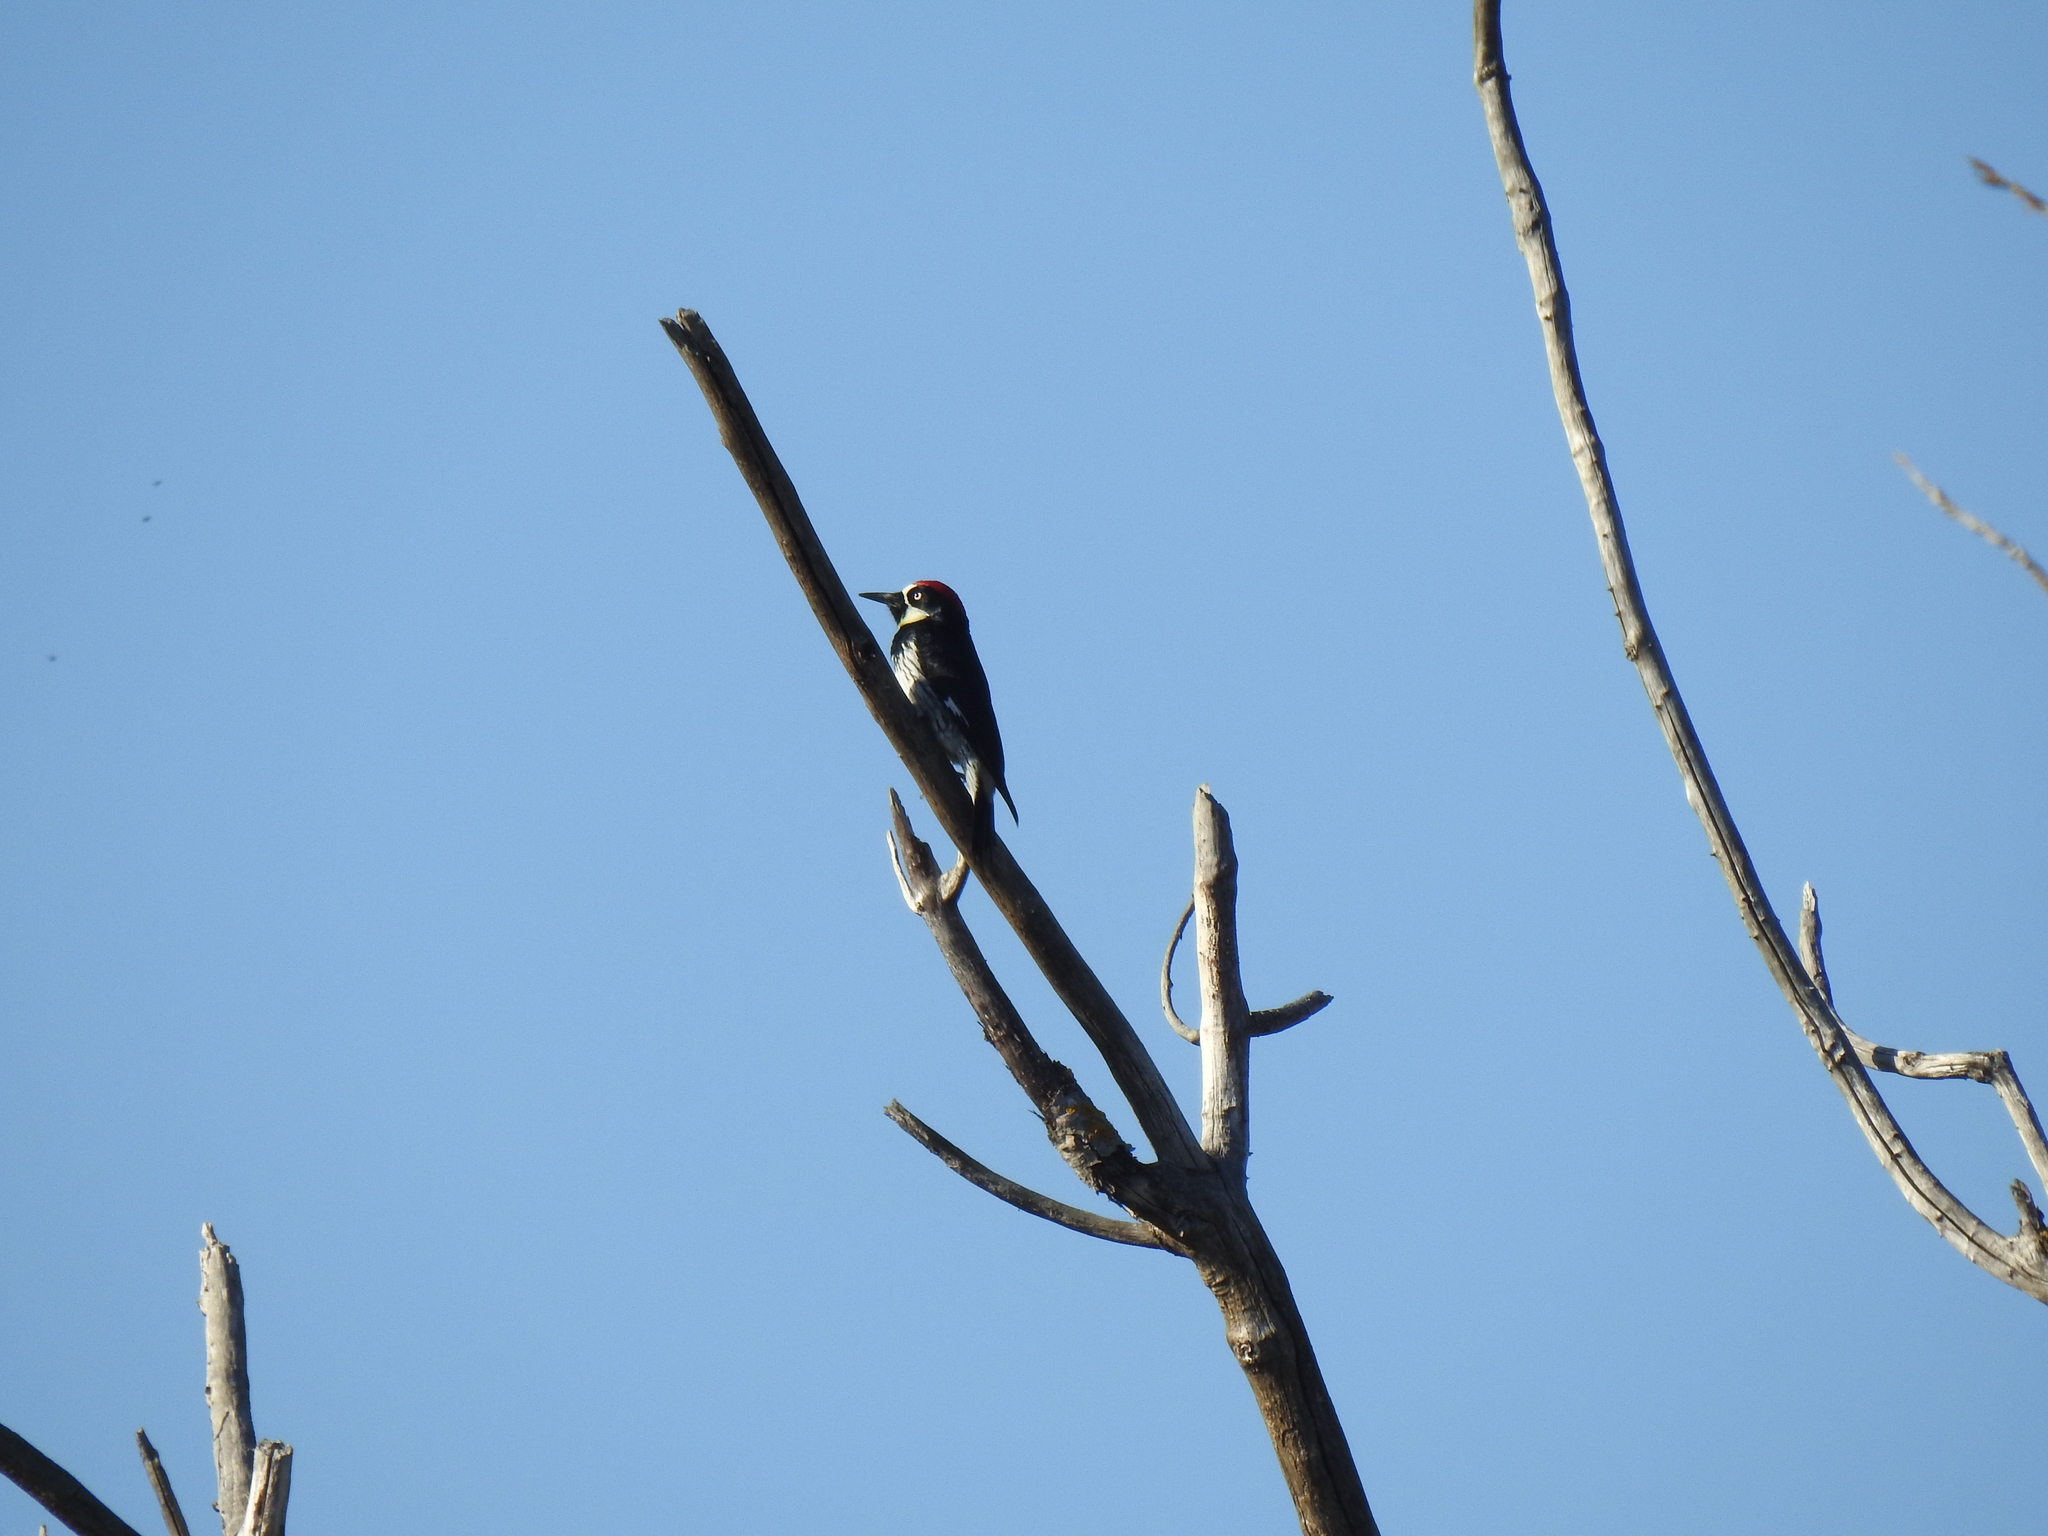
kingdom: Animalia
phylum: Chordata
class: Aves
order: Piciformes
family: Picidae
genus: Melanerpes
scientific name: Melanerpes formicivorus
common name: Acorn woodpecker
